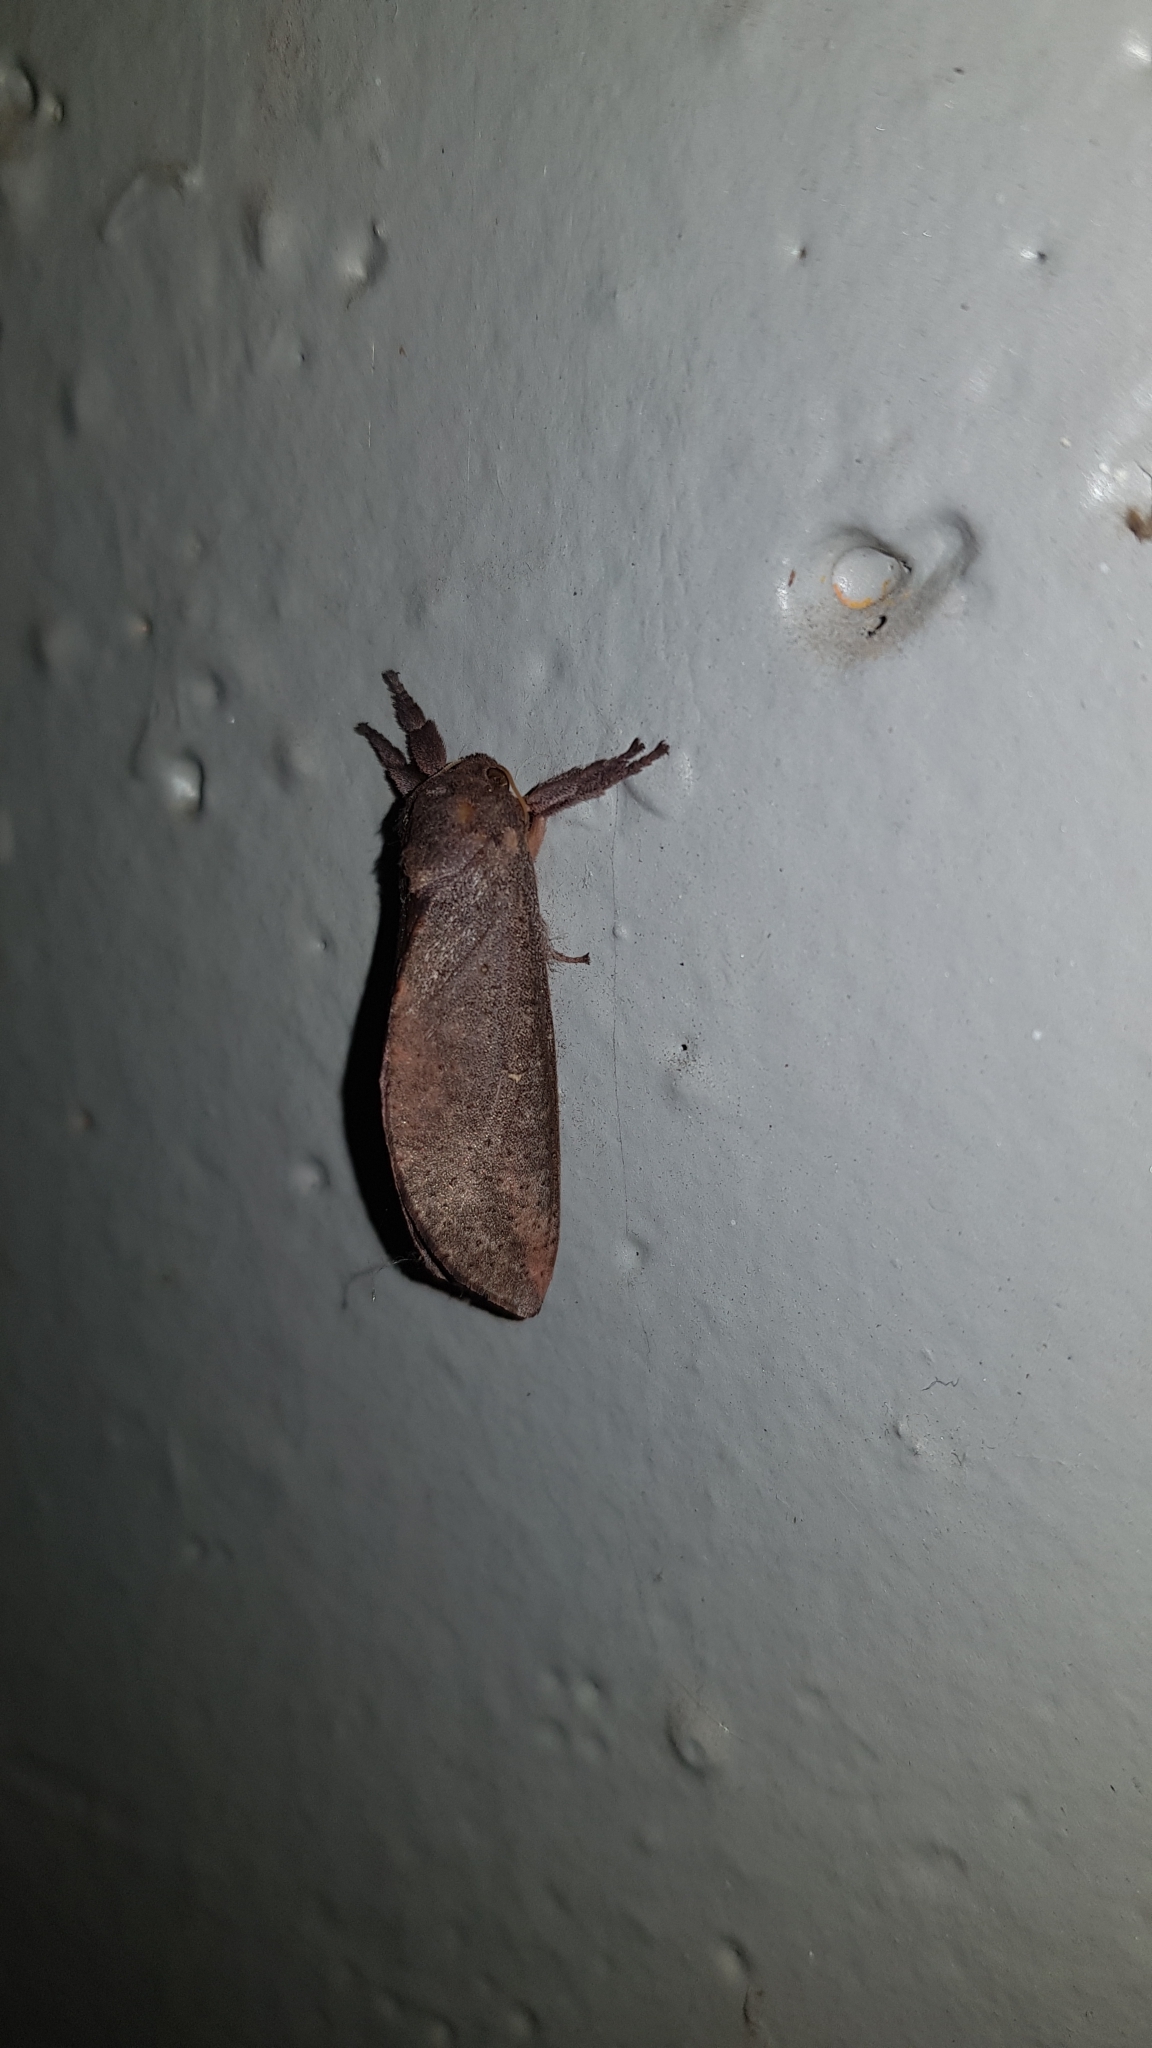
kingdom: Animalia
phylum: Arthropoda
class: Insecta
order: Lepidoptera
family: Hepialidae
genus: Elhamma
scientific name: Elhamma australasiae
